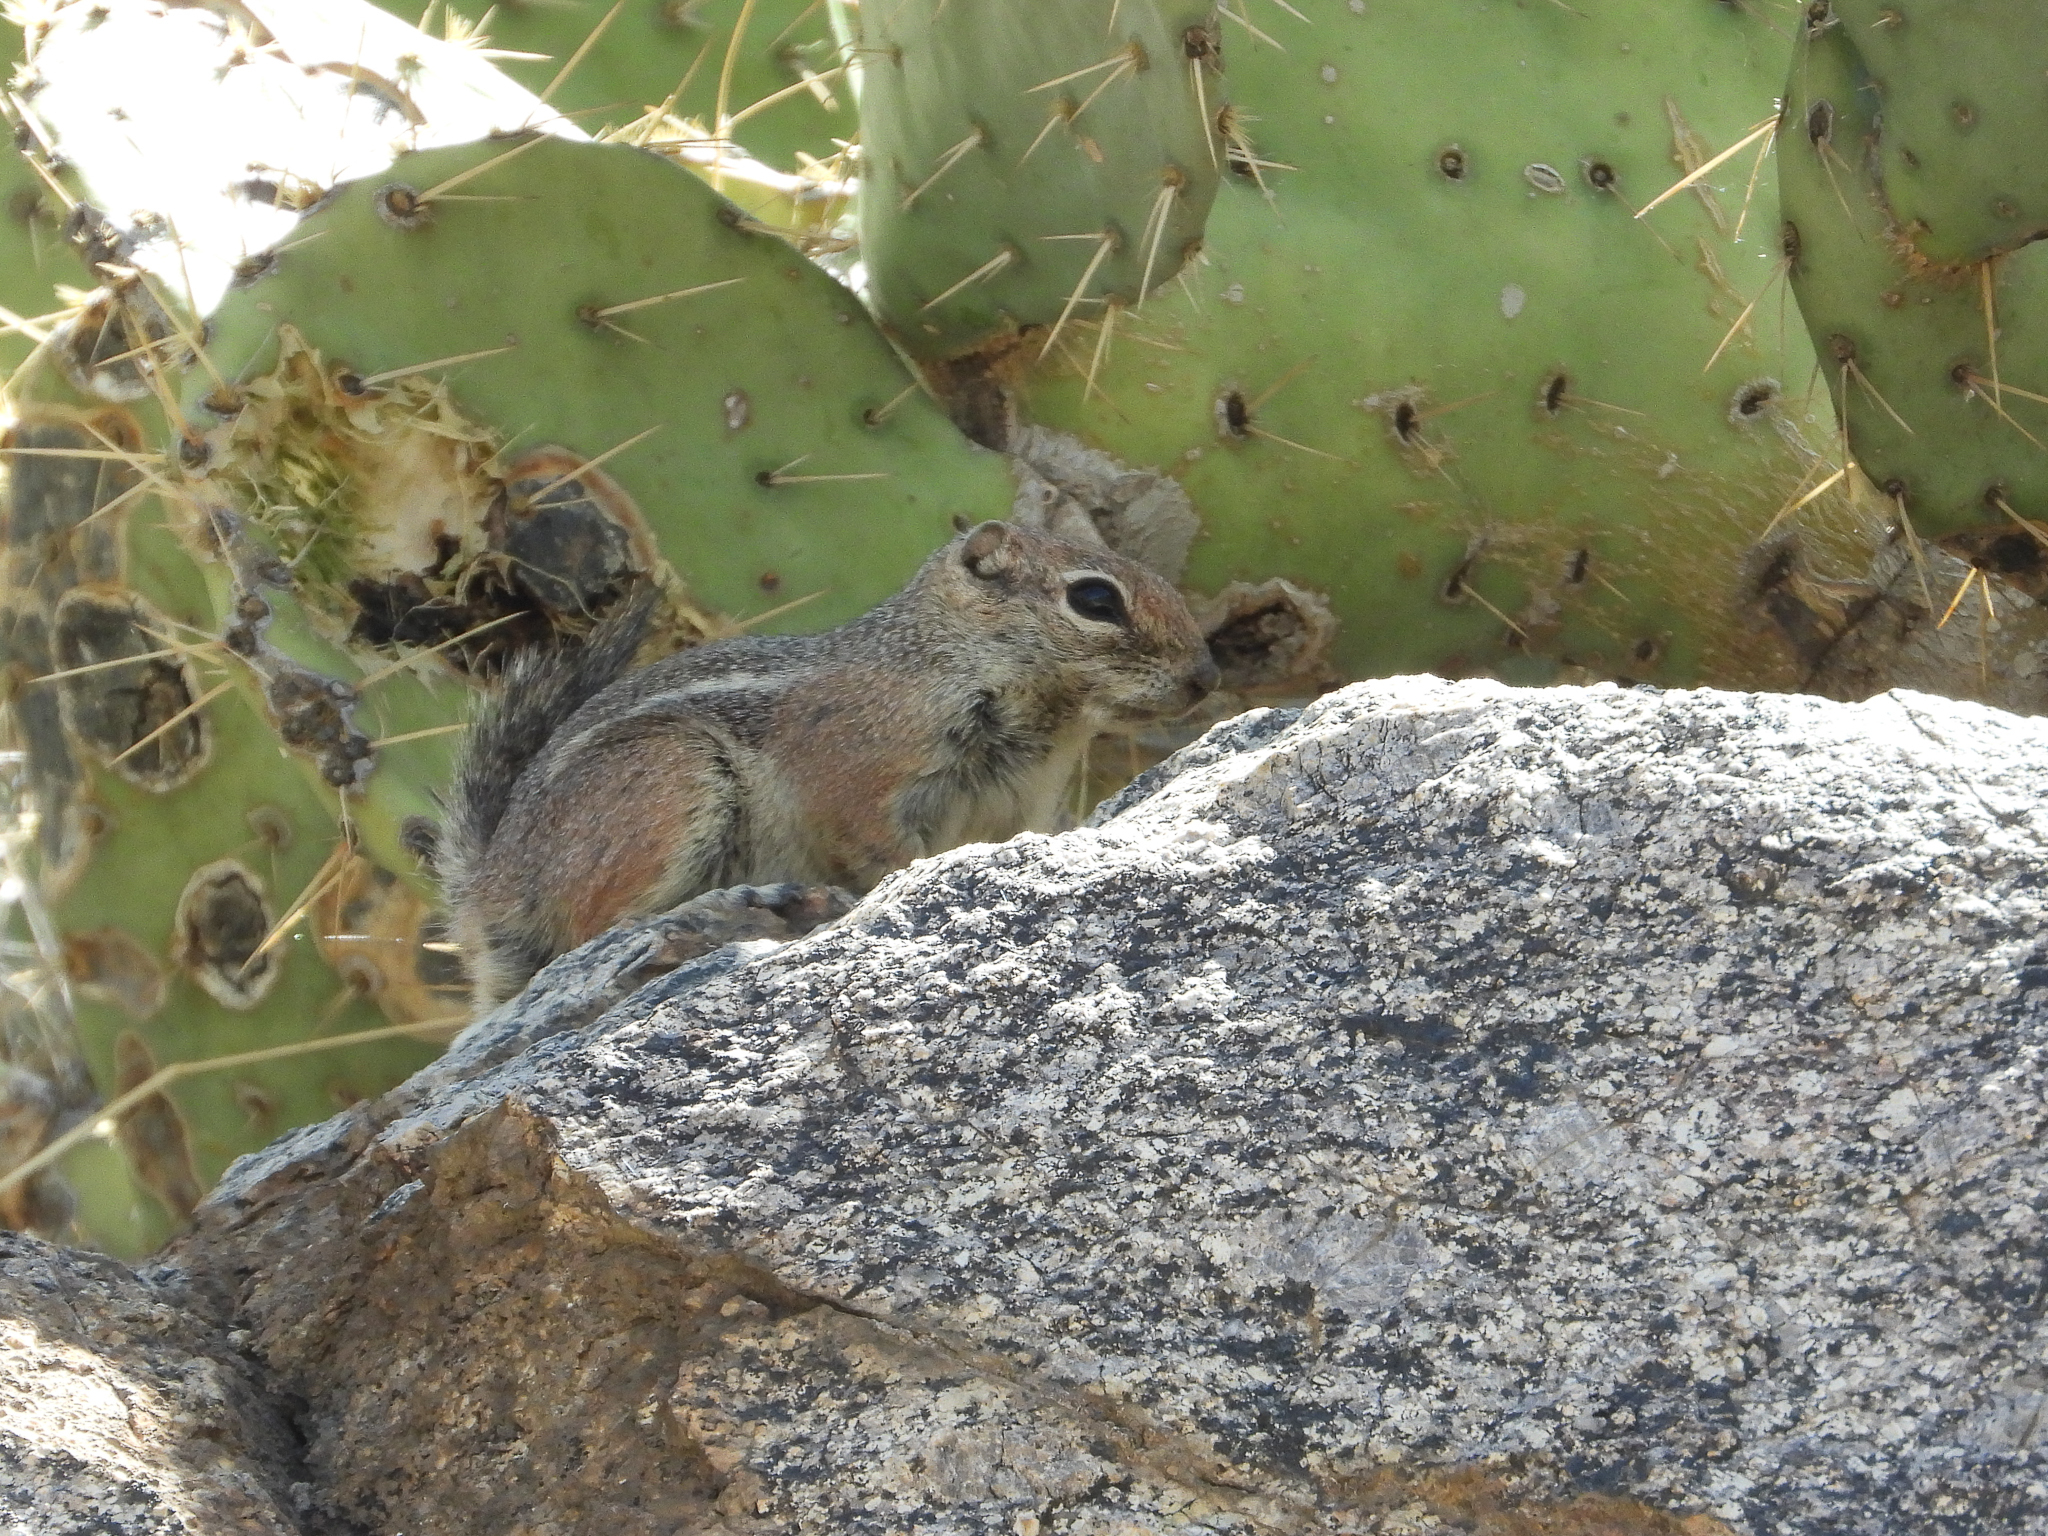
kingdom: Animalia
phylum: Chordata
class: Mammalia
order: Rodentia
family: Sciuridae
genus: Ammospermophilus
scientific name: Ammospermophilus harrisii
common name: Harris's antelope squirrel
